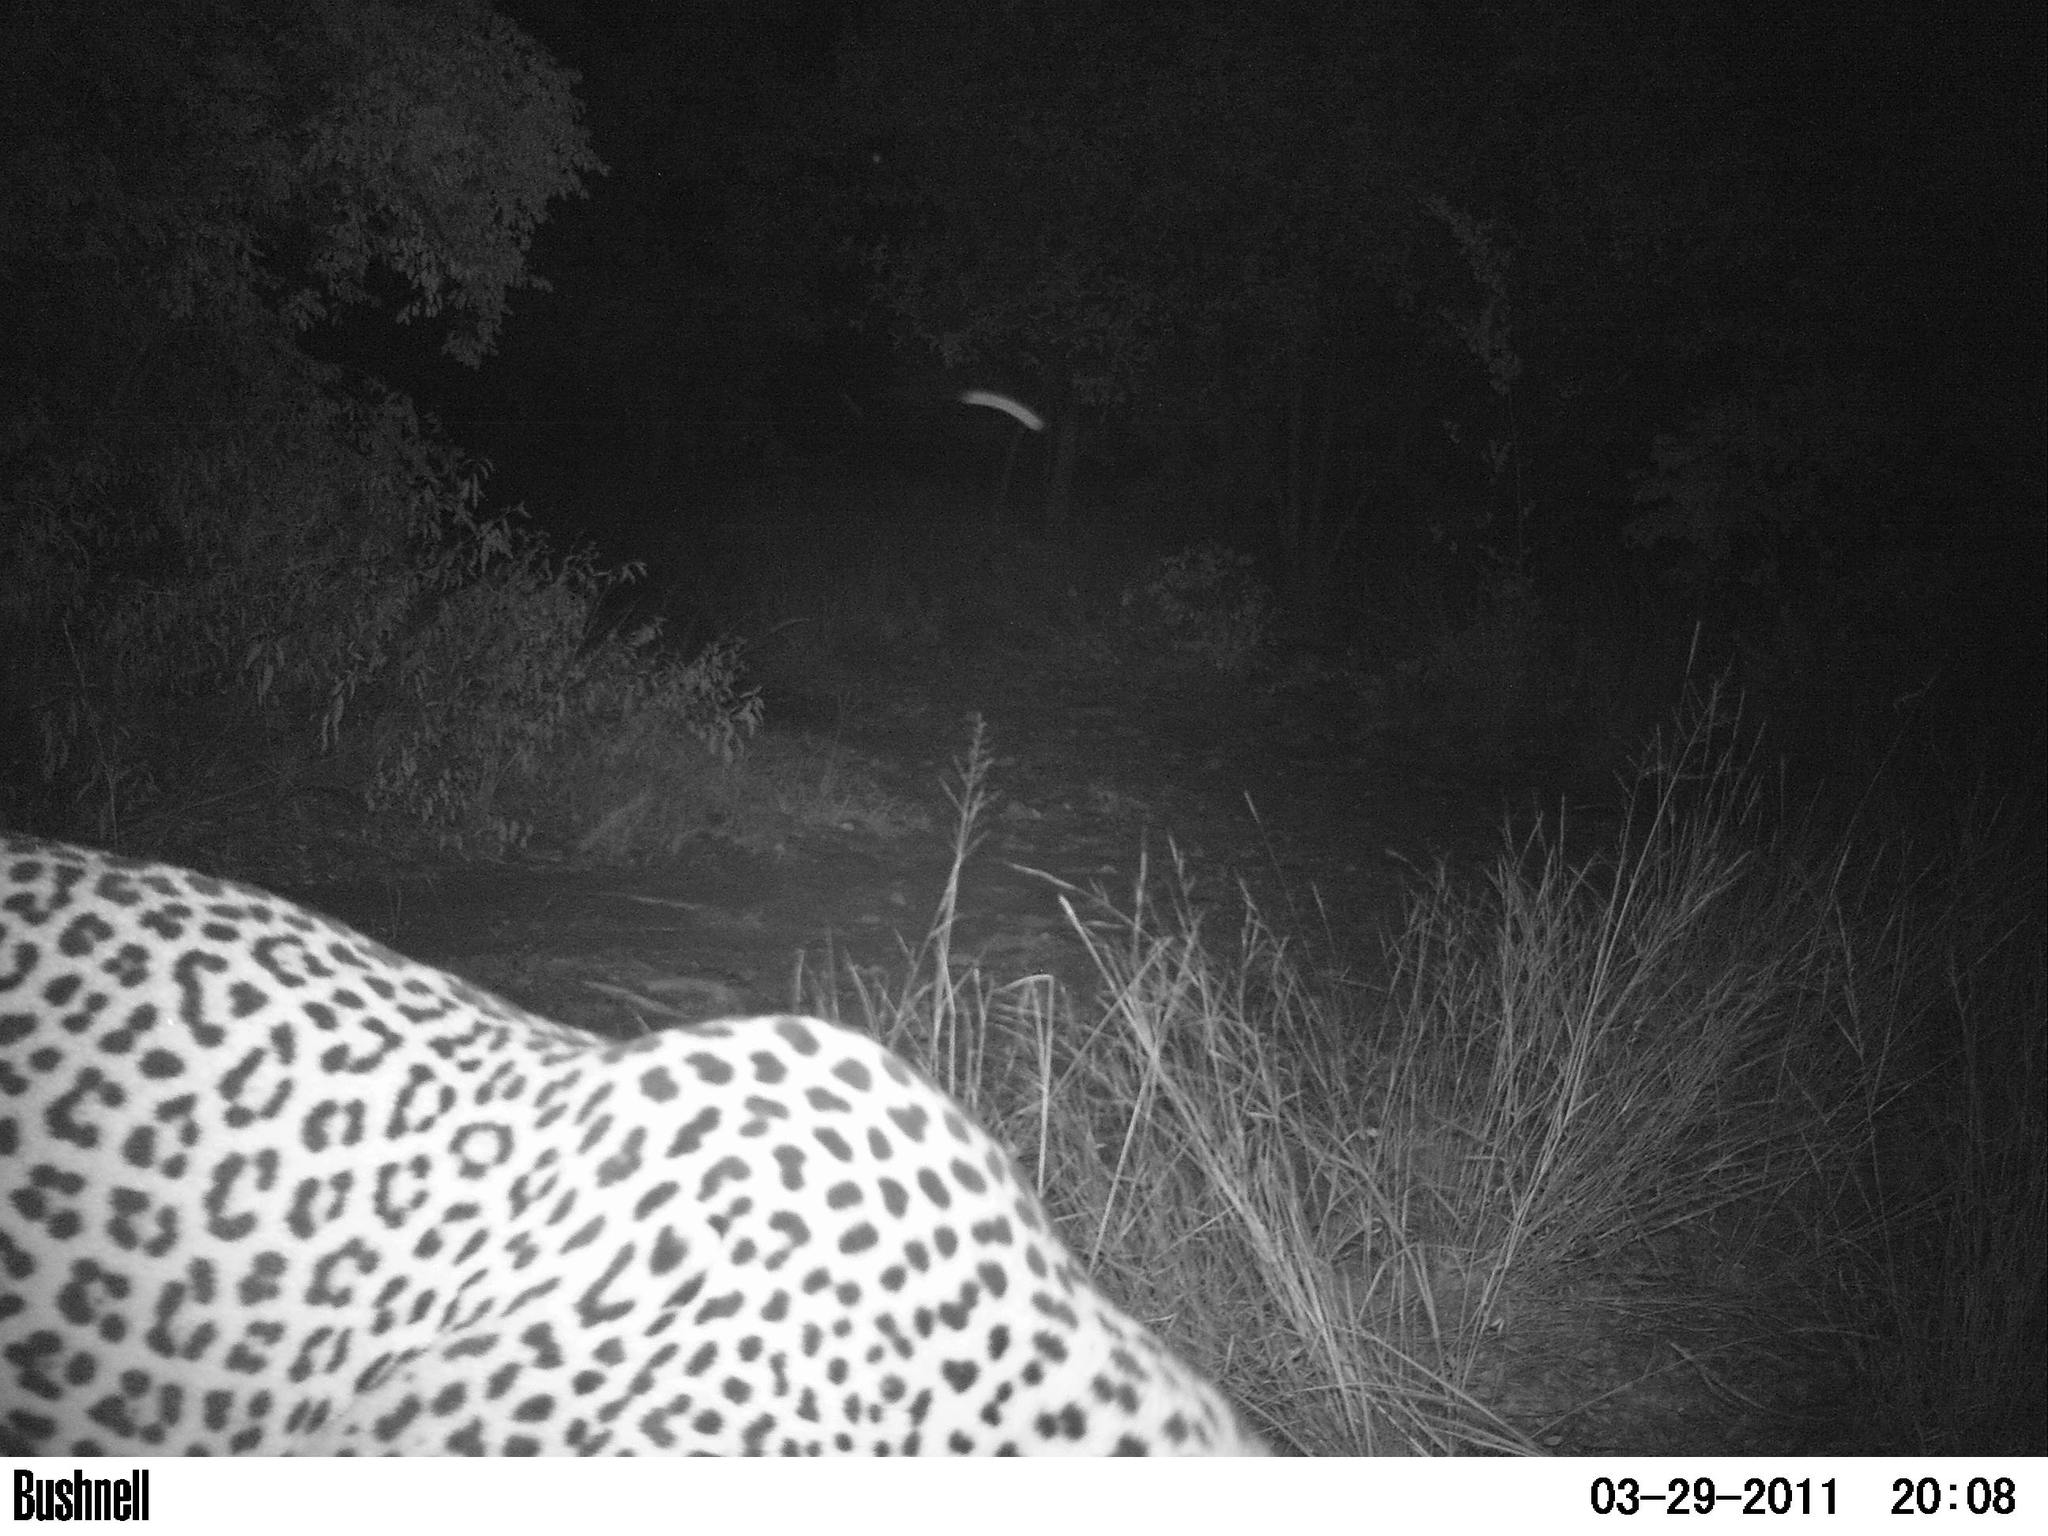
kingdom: Animalia
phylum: Chordata
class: Mammalia
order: Carnivora
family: Felidae
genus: Panthera
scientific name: Panthera pardus
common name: Leopard
